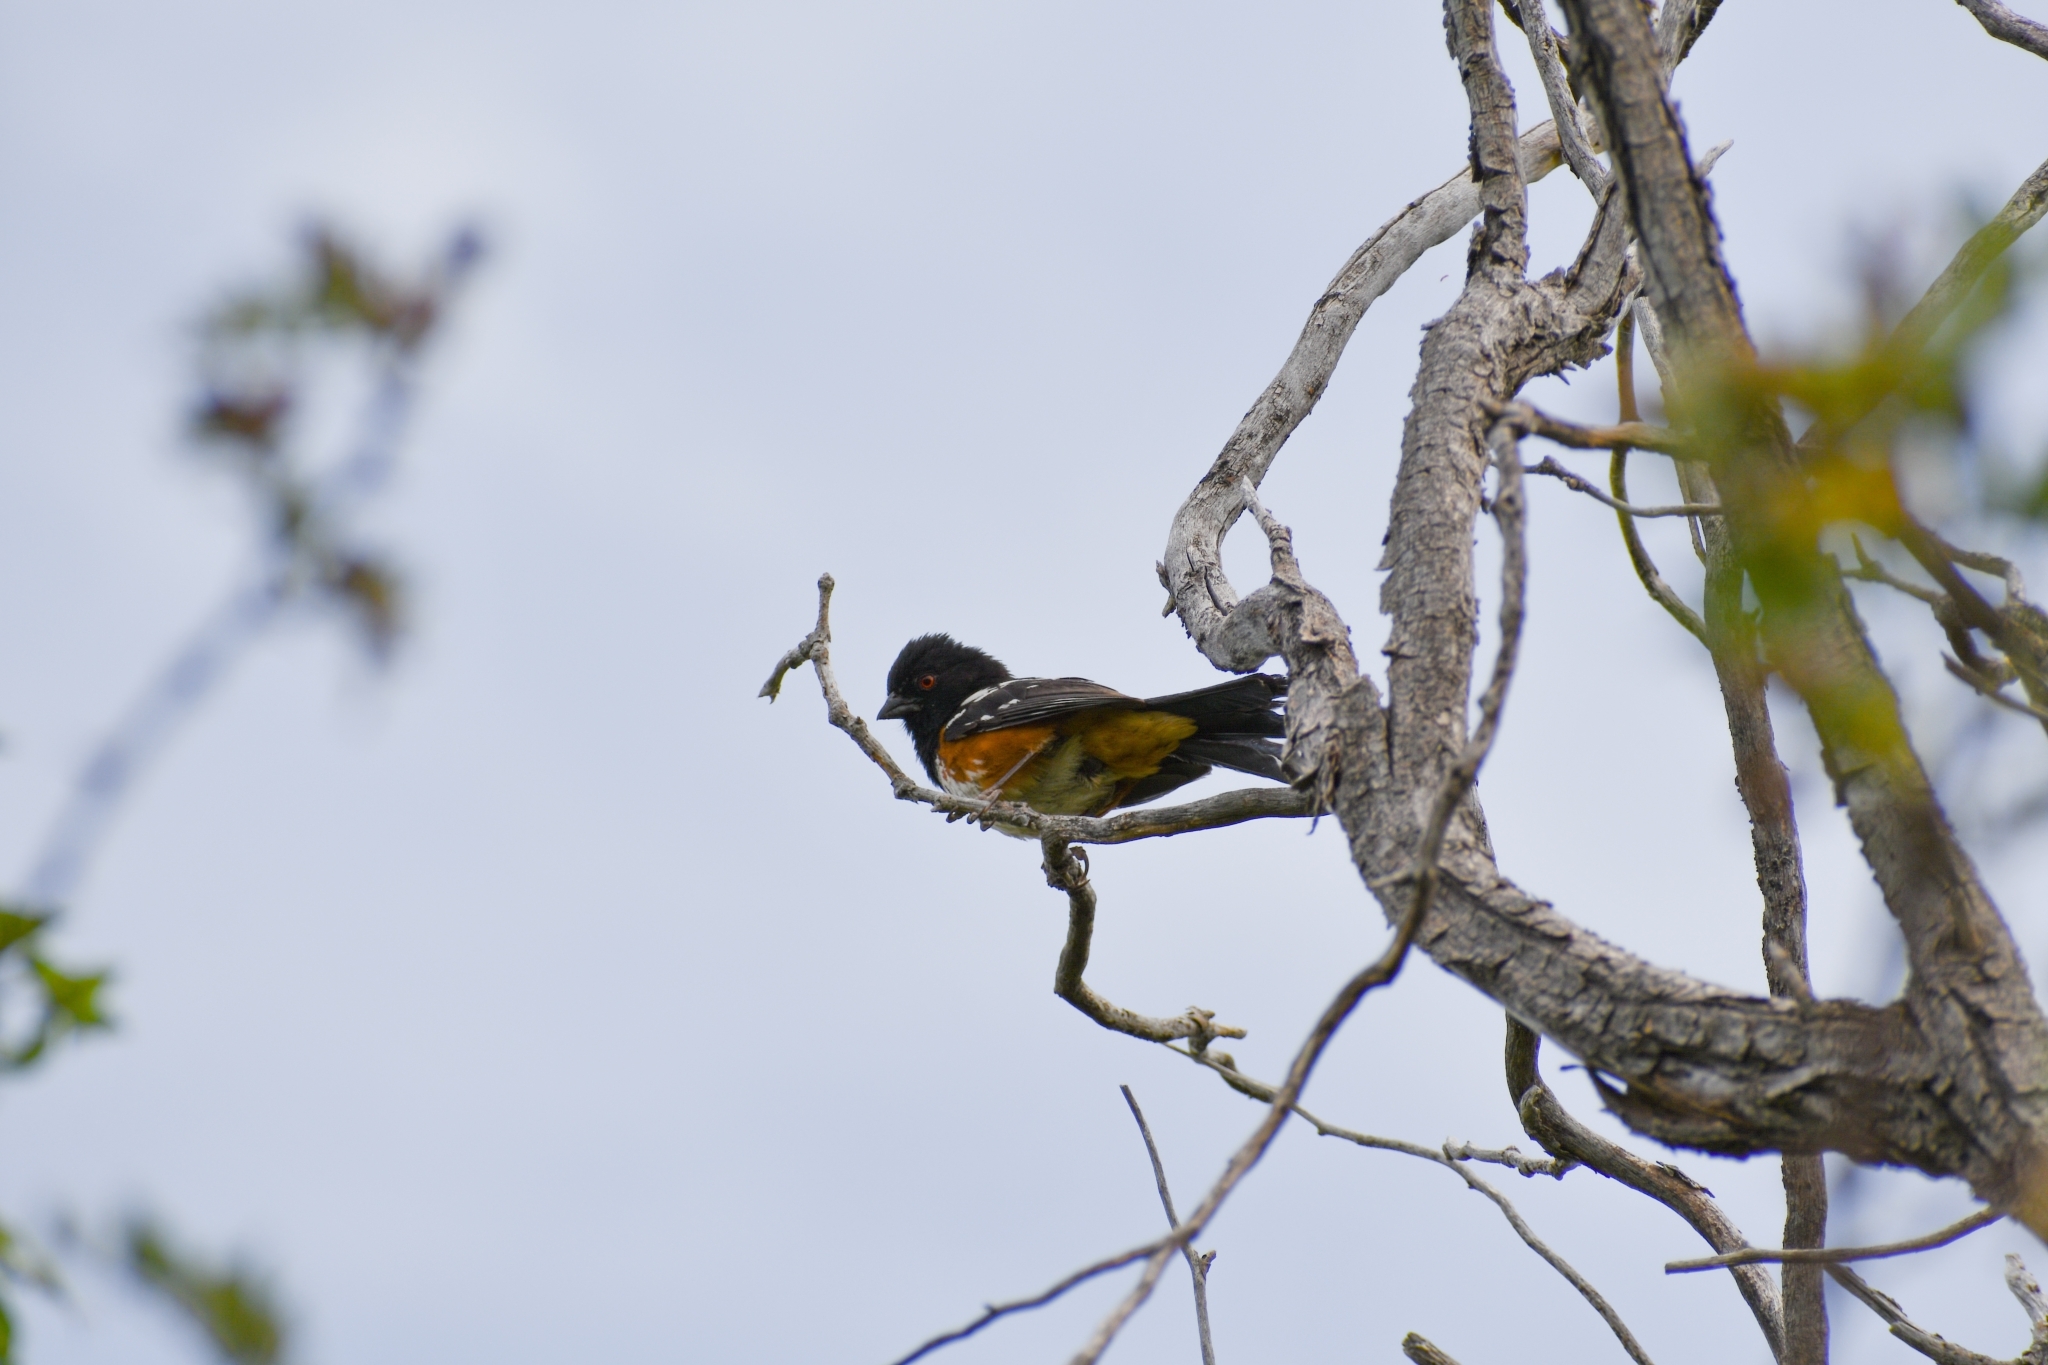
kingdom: Animalia
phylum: Chordata
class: Aves
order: Passeriformes
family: Passerellidae
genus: Pipilo
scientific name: Pipilo maculatus
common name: Spotted towhee
